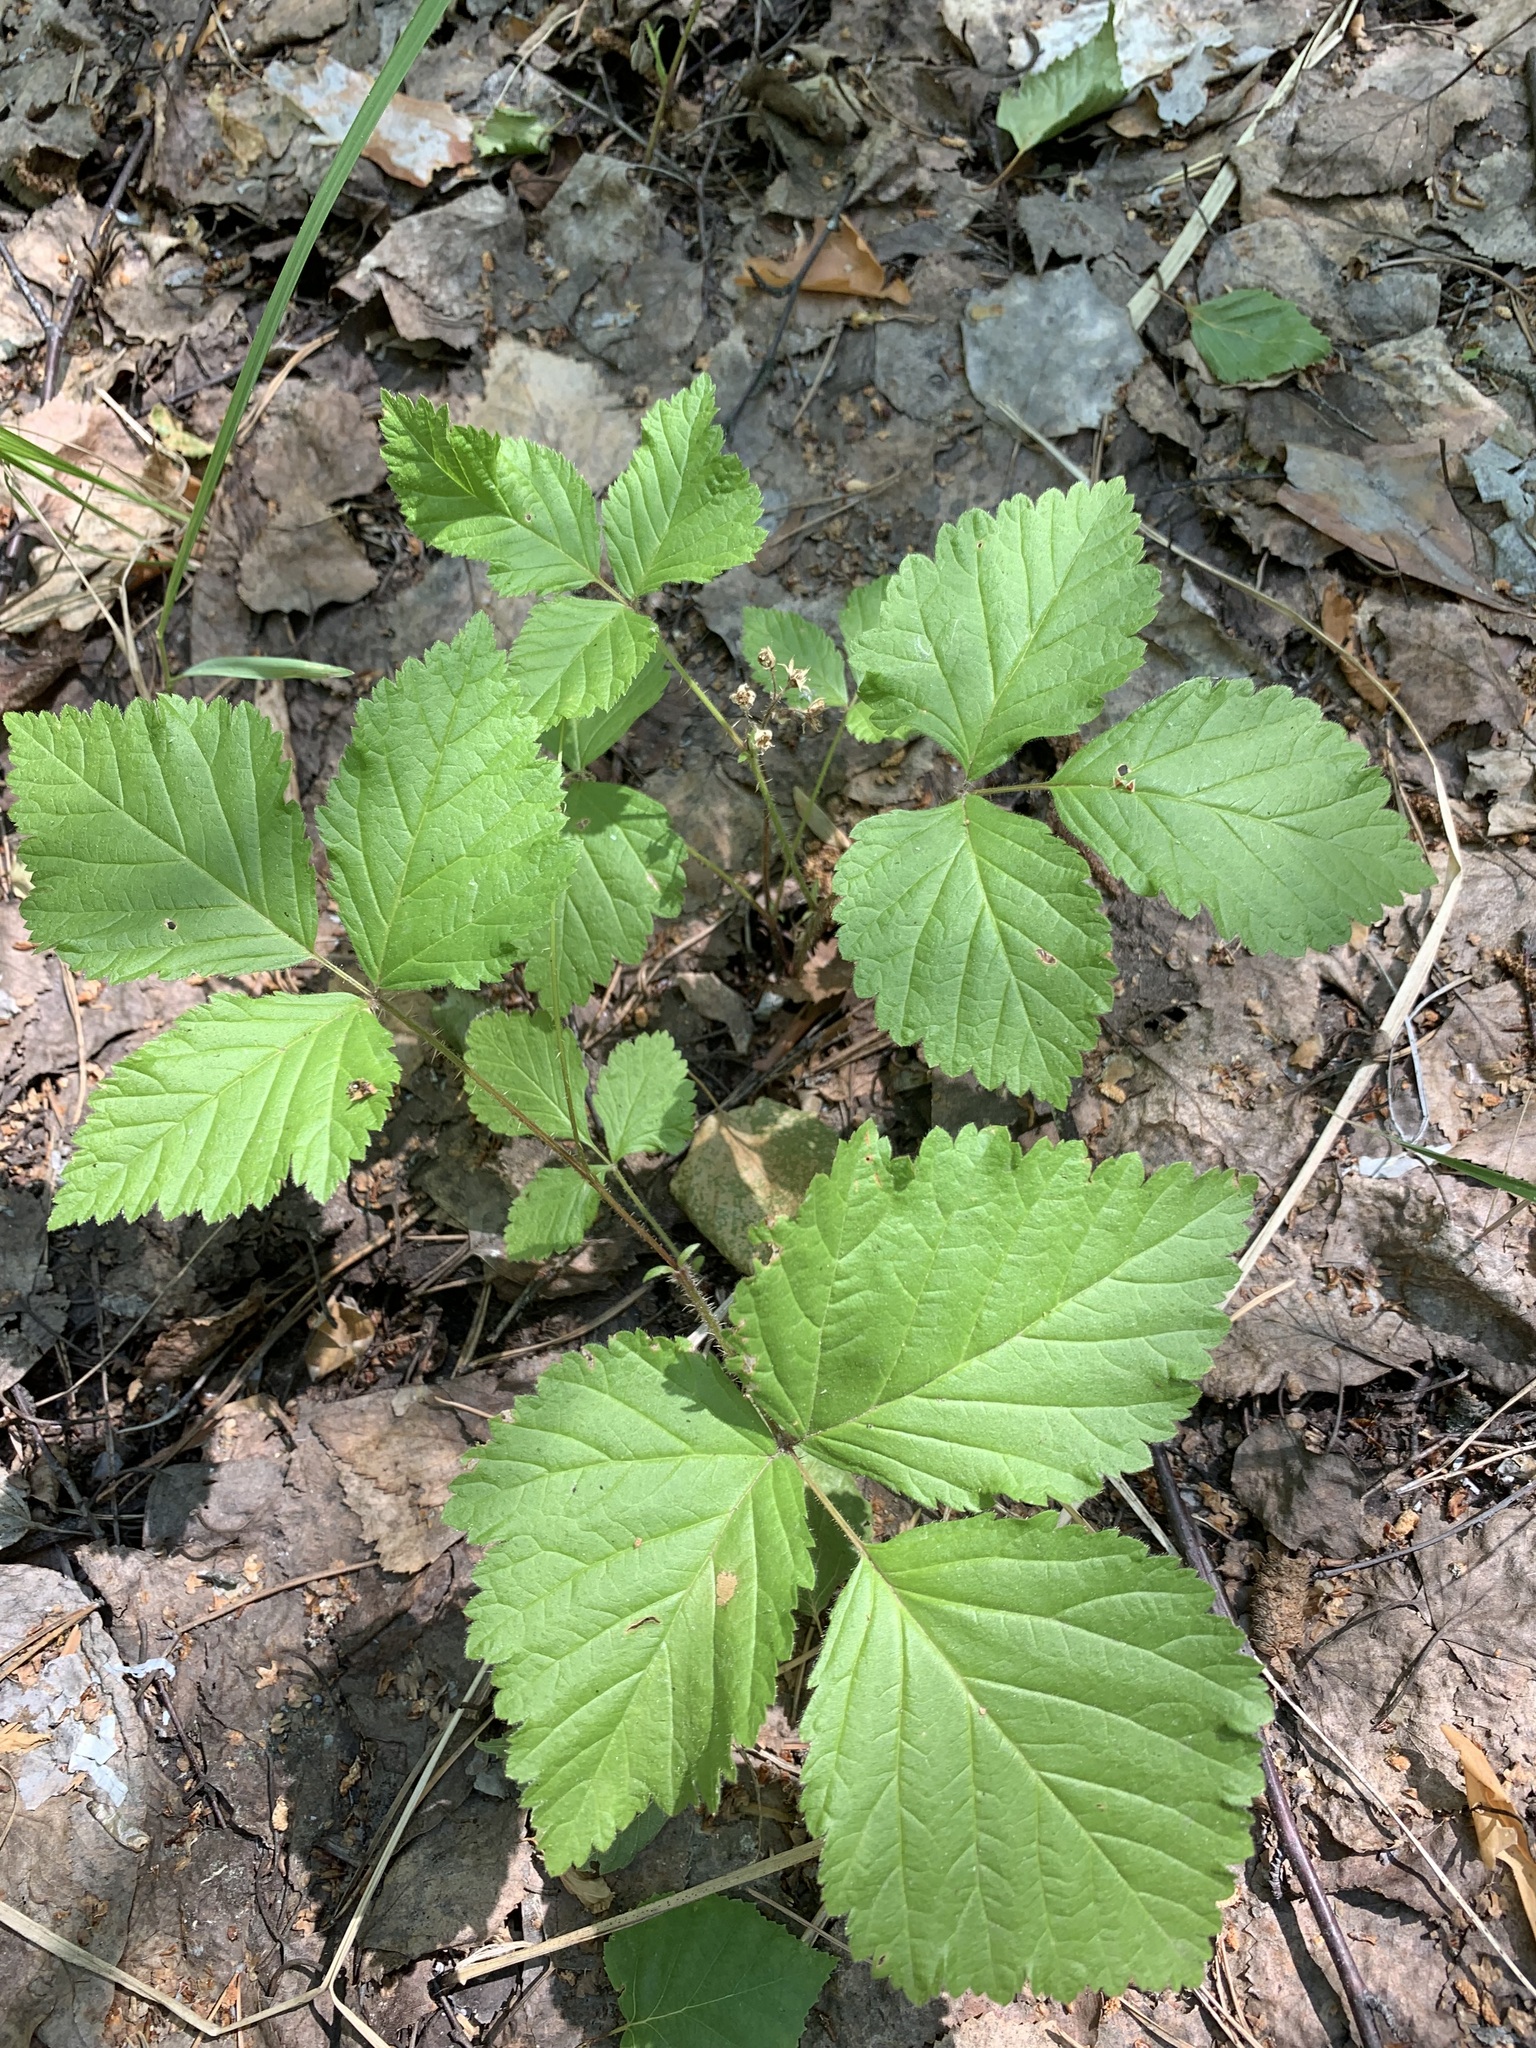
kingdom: Plantae
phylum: Tracheophyta
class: Magnoliopsida
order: Rosales
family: Rosaceae
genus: Rubus
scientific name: Rubus saxatilis
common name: Stone bramble
